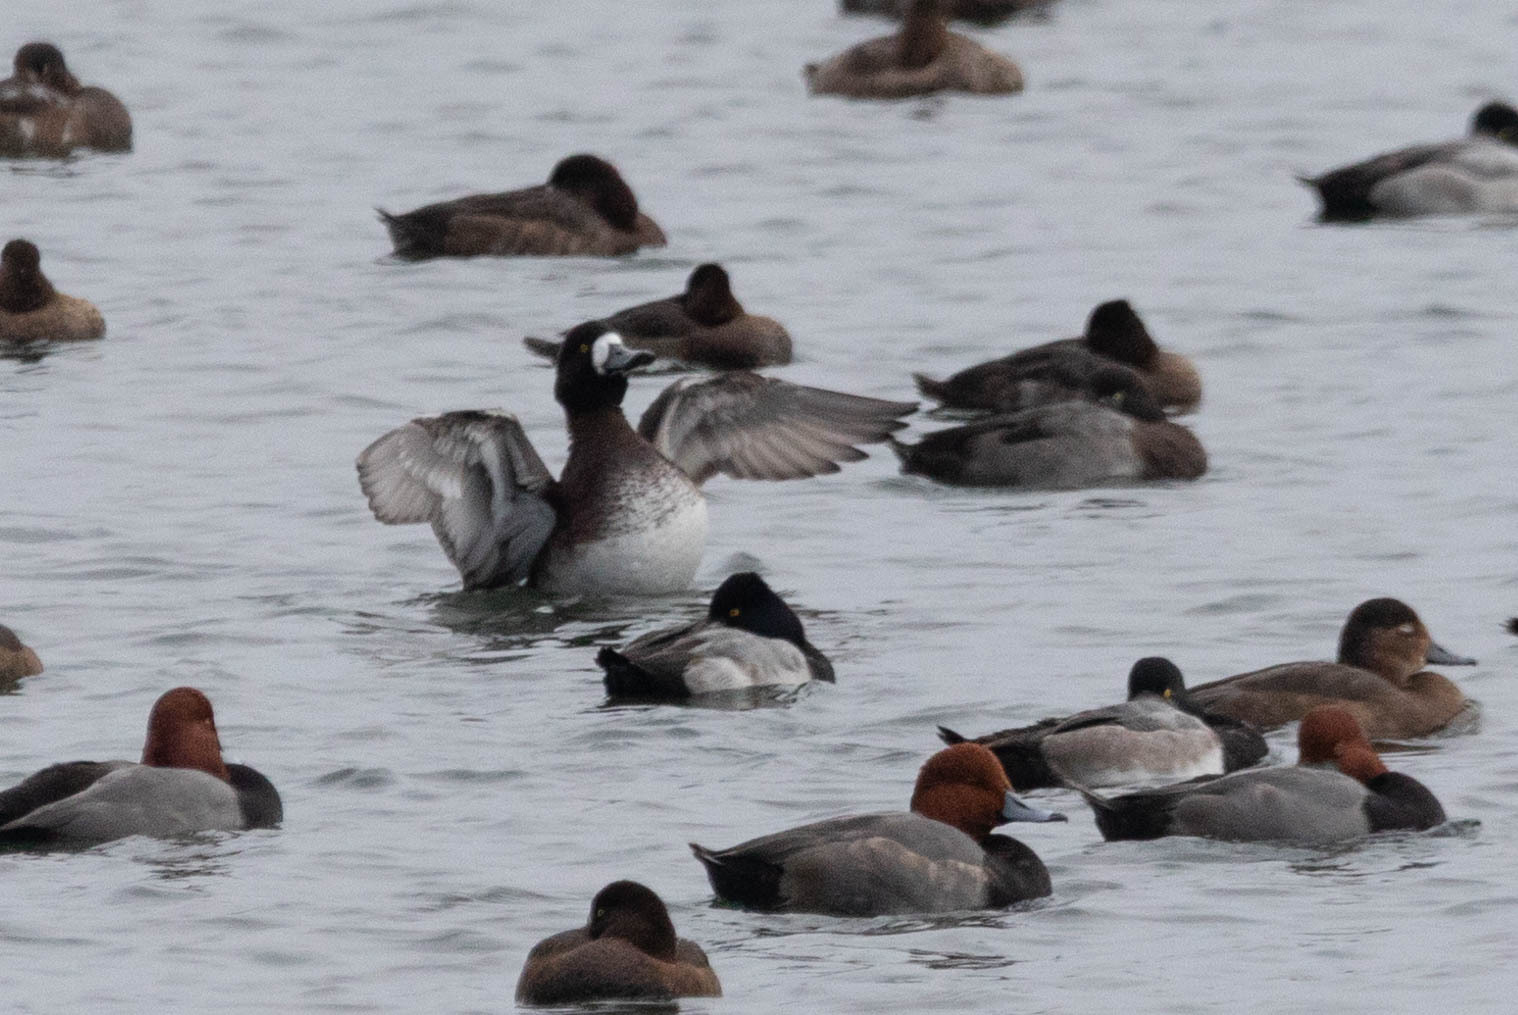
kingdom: Animalia
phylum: Chordata
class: Aves
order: Anseriformes
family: Anatidae
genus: Aythya
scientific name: Aythya affinis
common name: Lesser scaup
